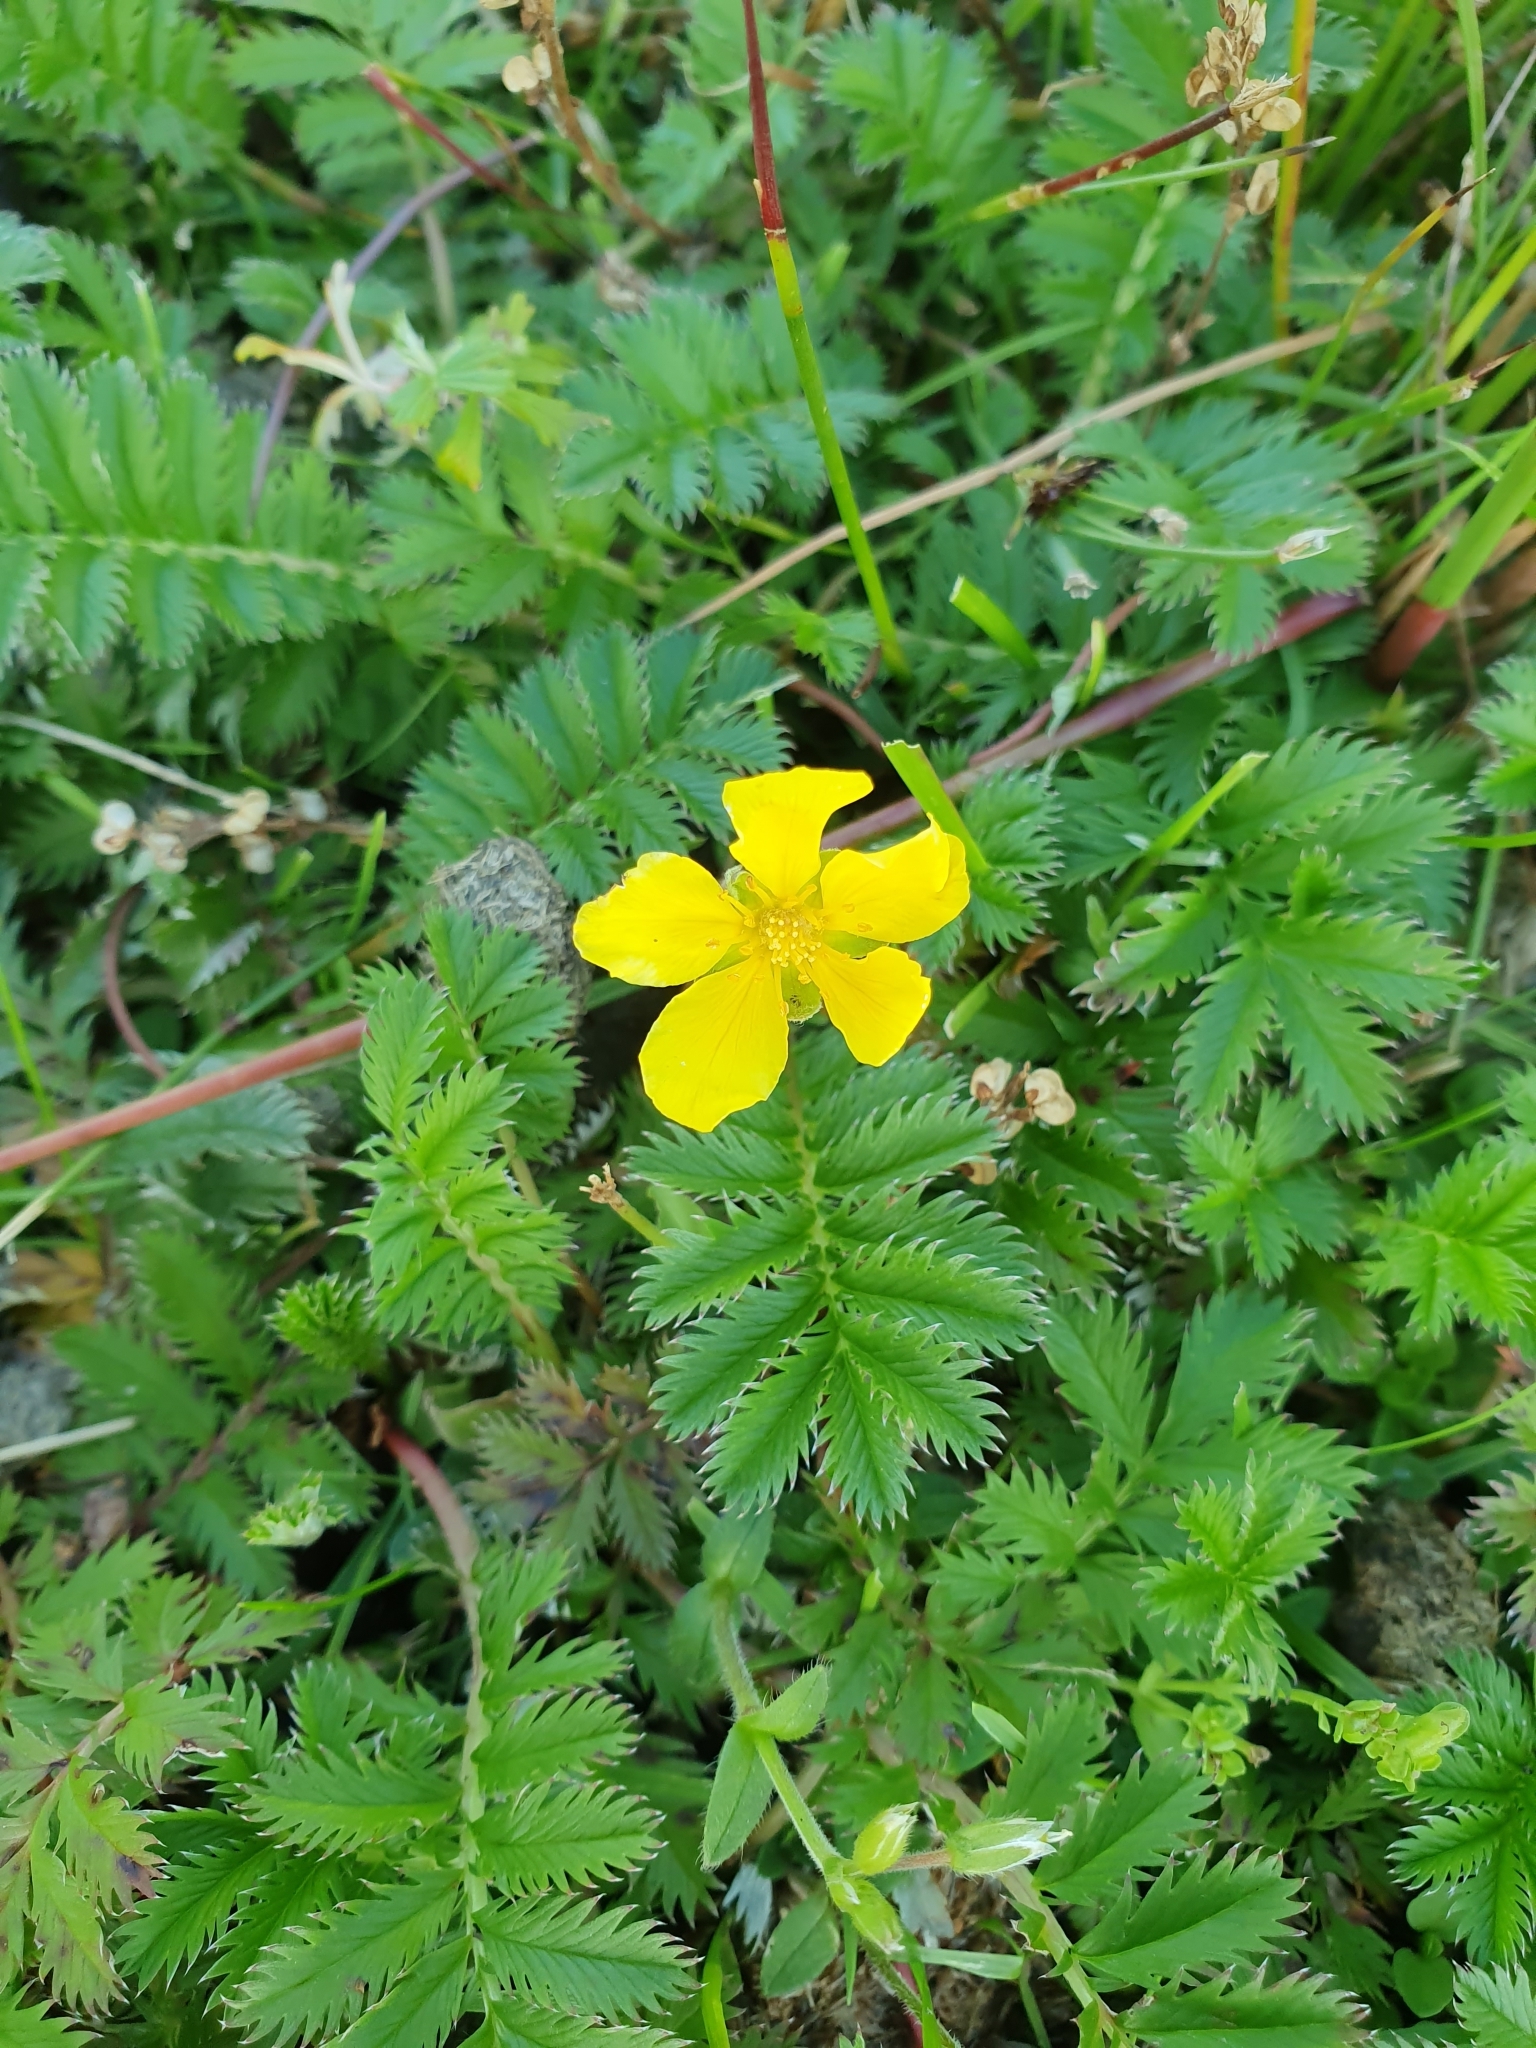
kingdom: Plantae
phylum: Tracheophyta
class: Magnoliopsida
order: Rosales
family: Rosaceae
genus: Argentina
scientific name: Argentina anserina
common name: Common silverweed
